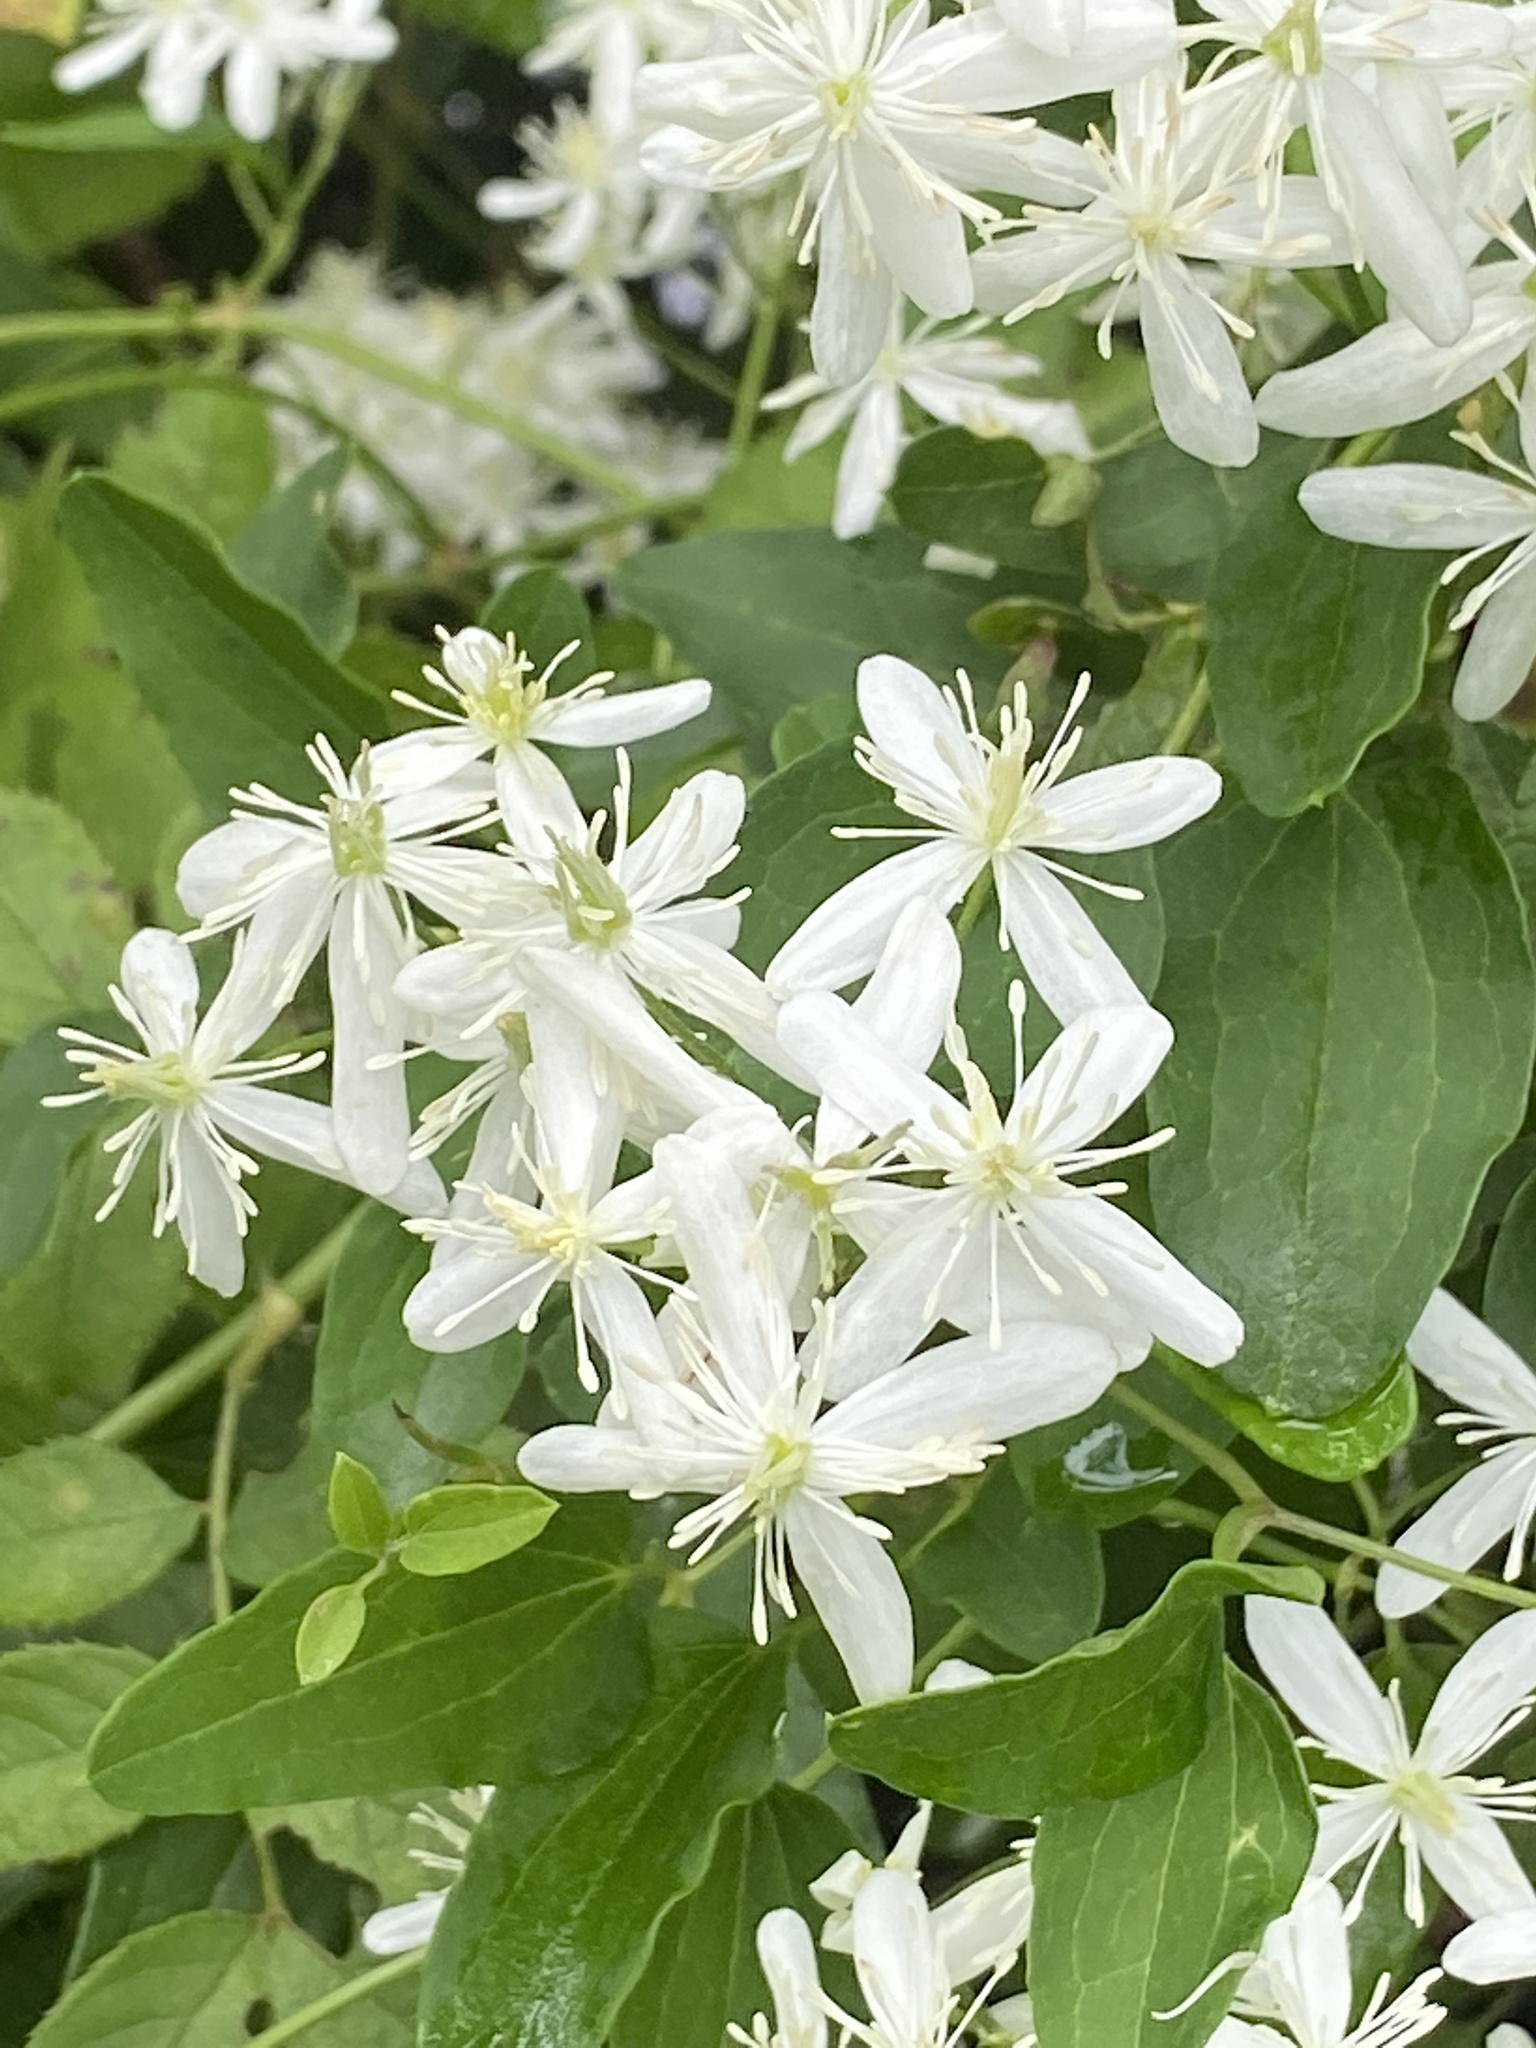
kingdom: Plantae
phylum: Tracheophyta
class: Magnoliopsida
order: Ranunculales
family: Ranunculaceae
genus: Clematis
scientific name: Clematis terniflora
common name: Sweet autumn clematis
